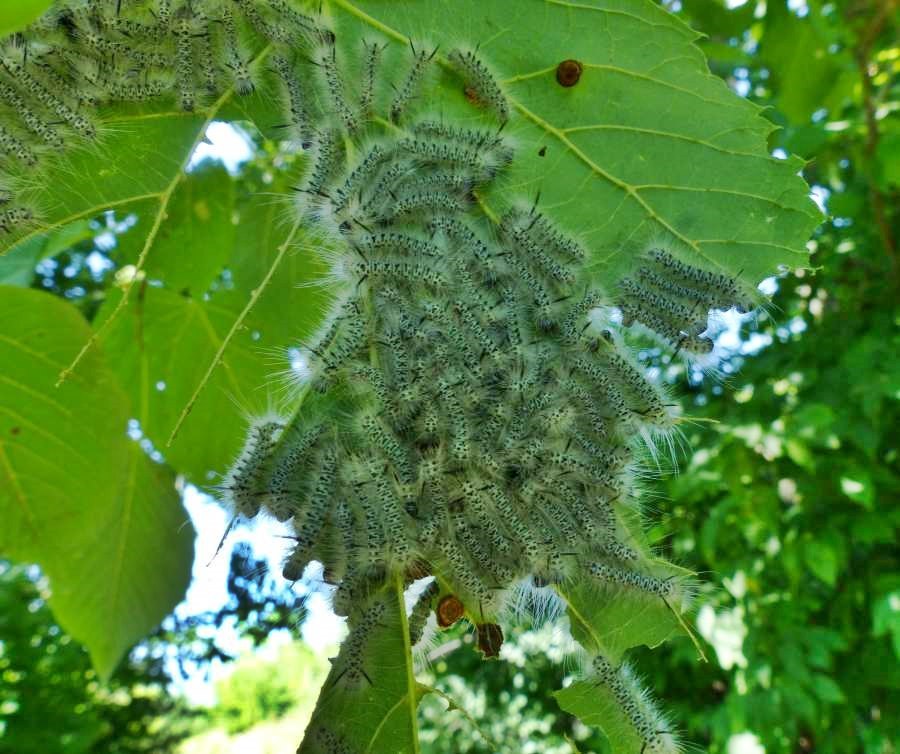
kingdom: Animalia
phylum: Arthropoda
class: Insecta
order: Lepidoptera
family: Erebidae
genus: Lophocampa
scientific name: Lophocampa caryae
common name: Hickory tussock moth
